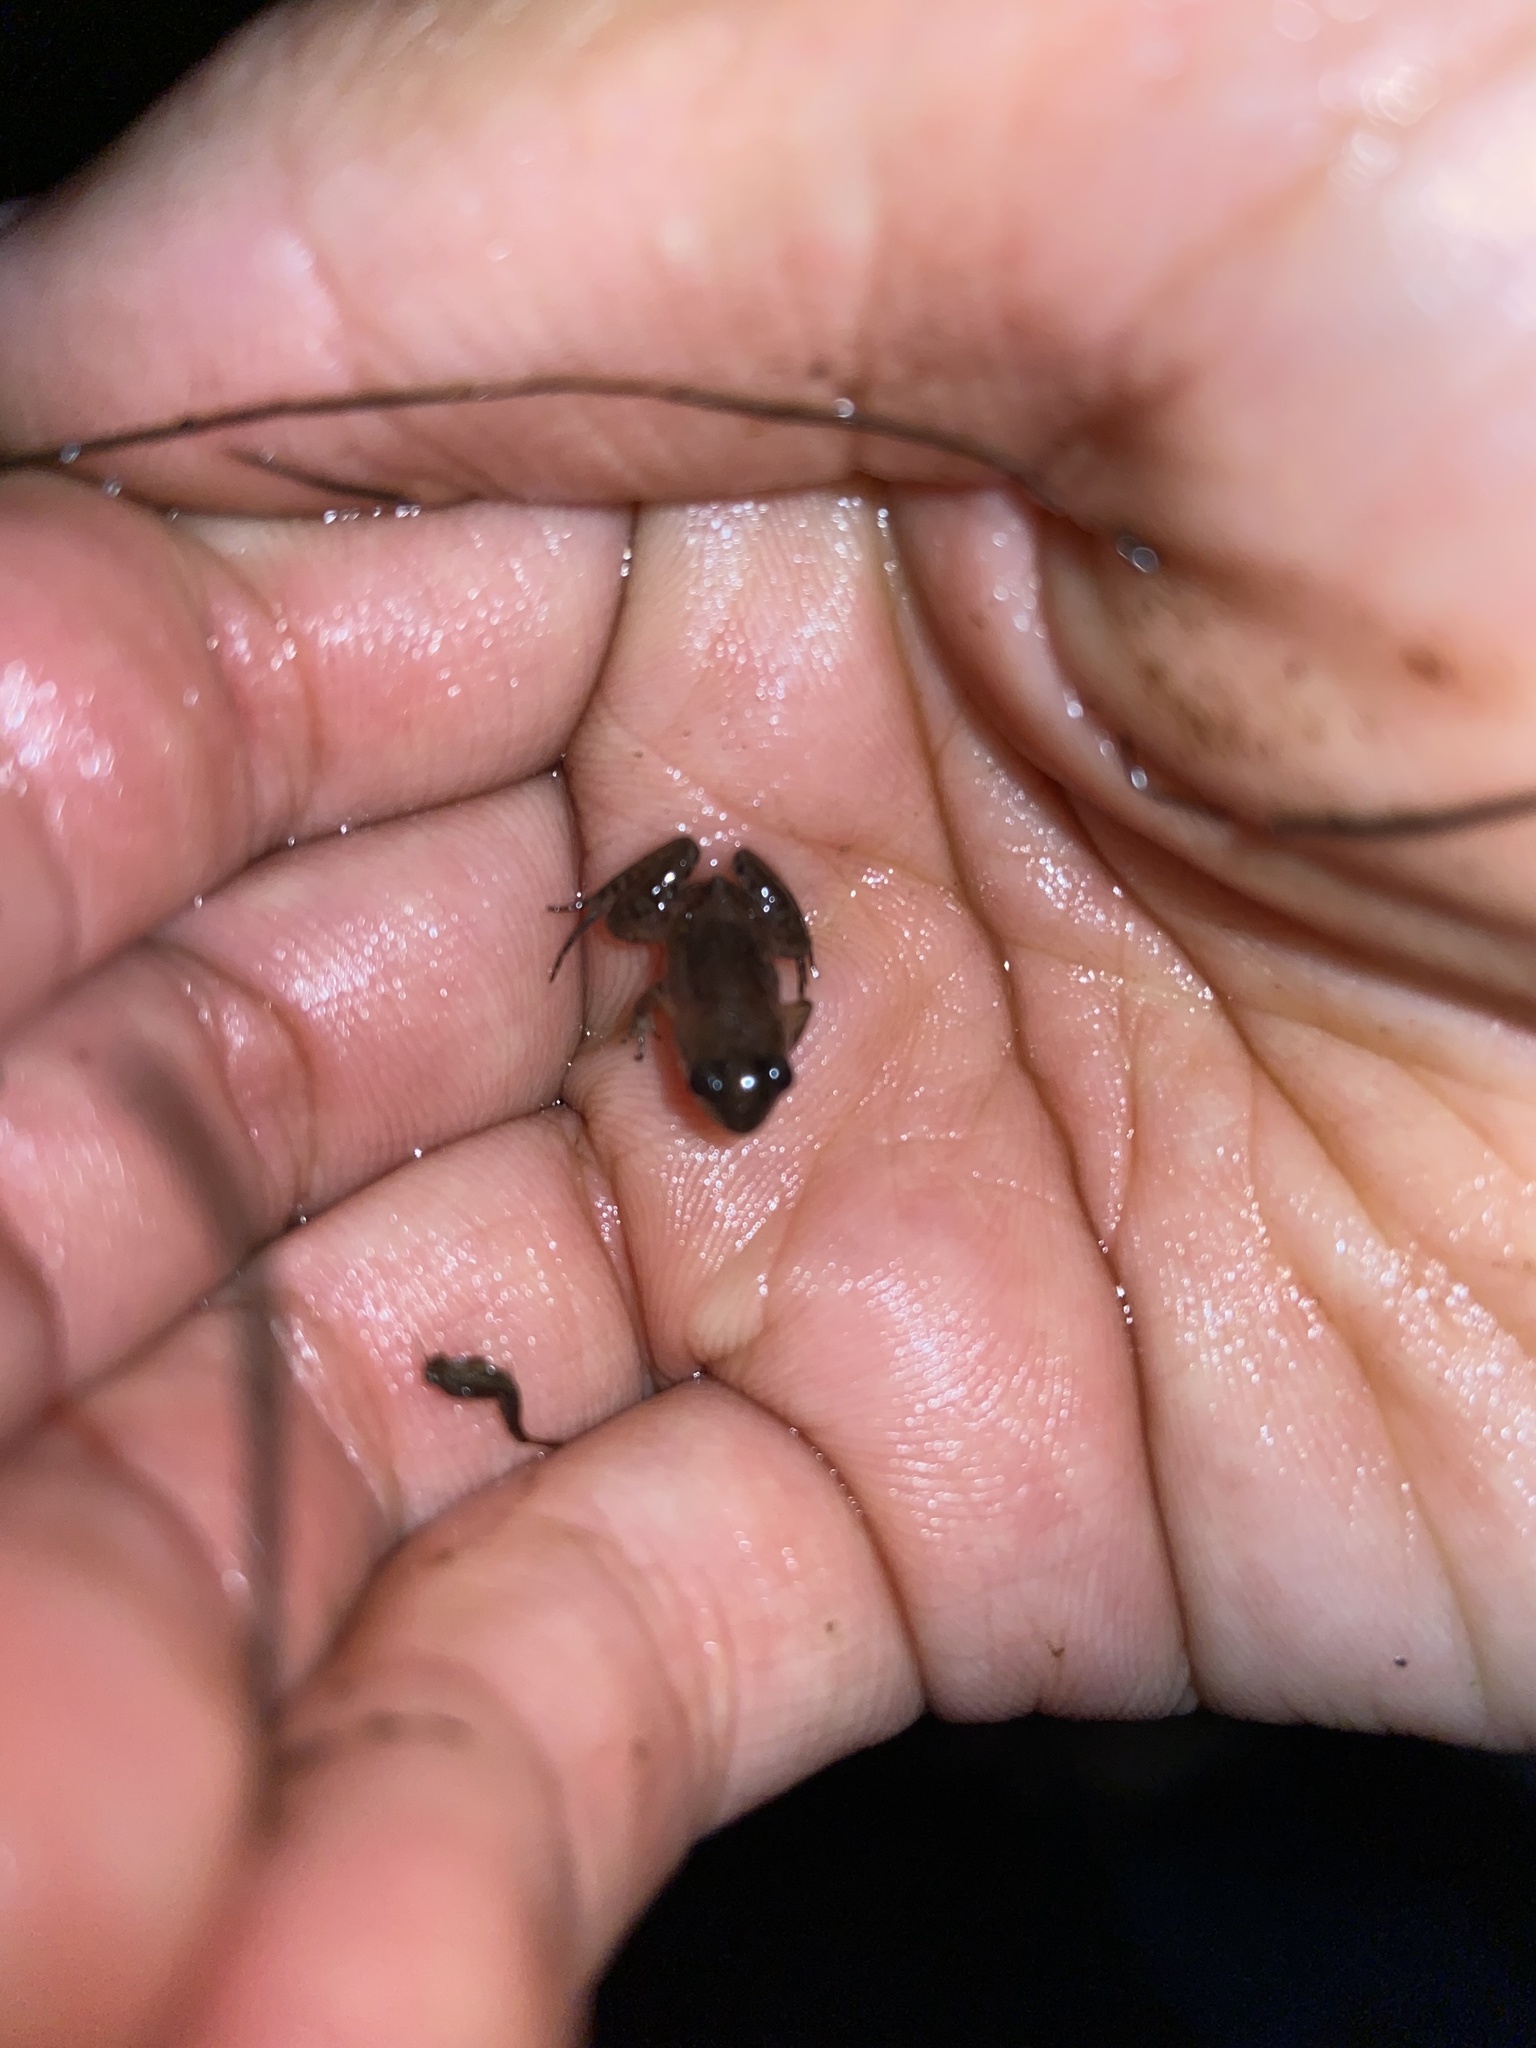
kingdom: Animalia
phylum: Chordata
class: Amphibia
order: Anura
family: Pyxicephalidae
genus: Microbatrachella
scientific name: Microbatrachella capensis
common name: Cape flats frog
